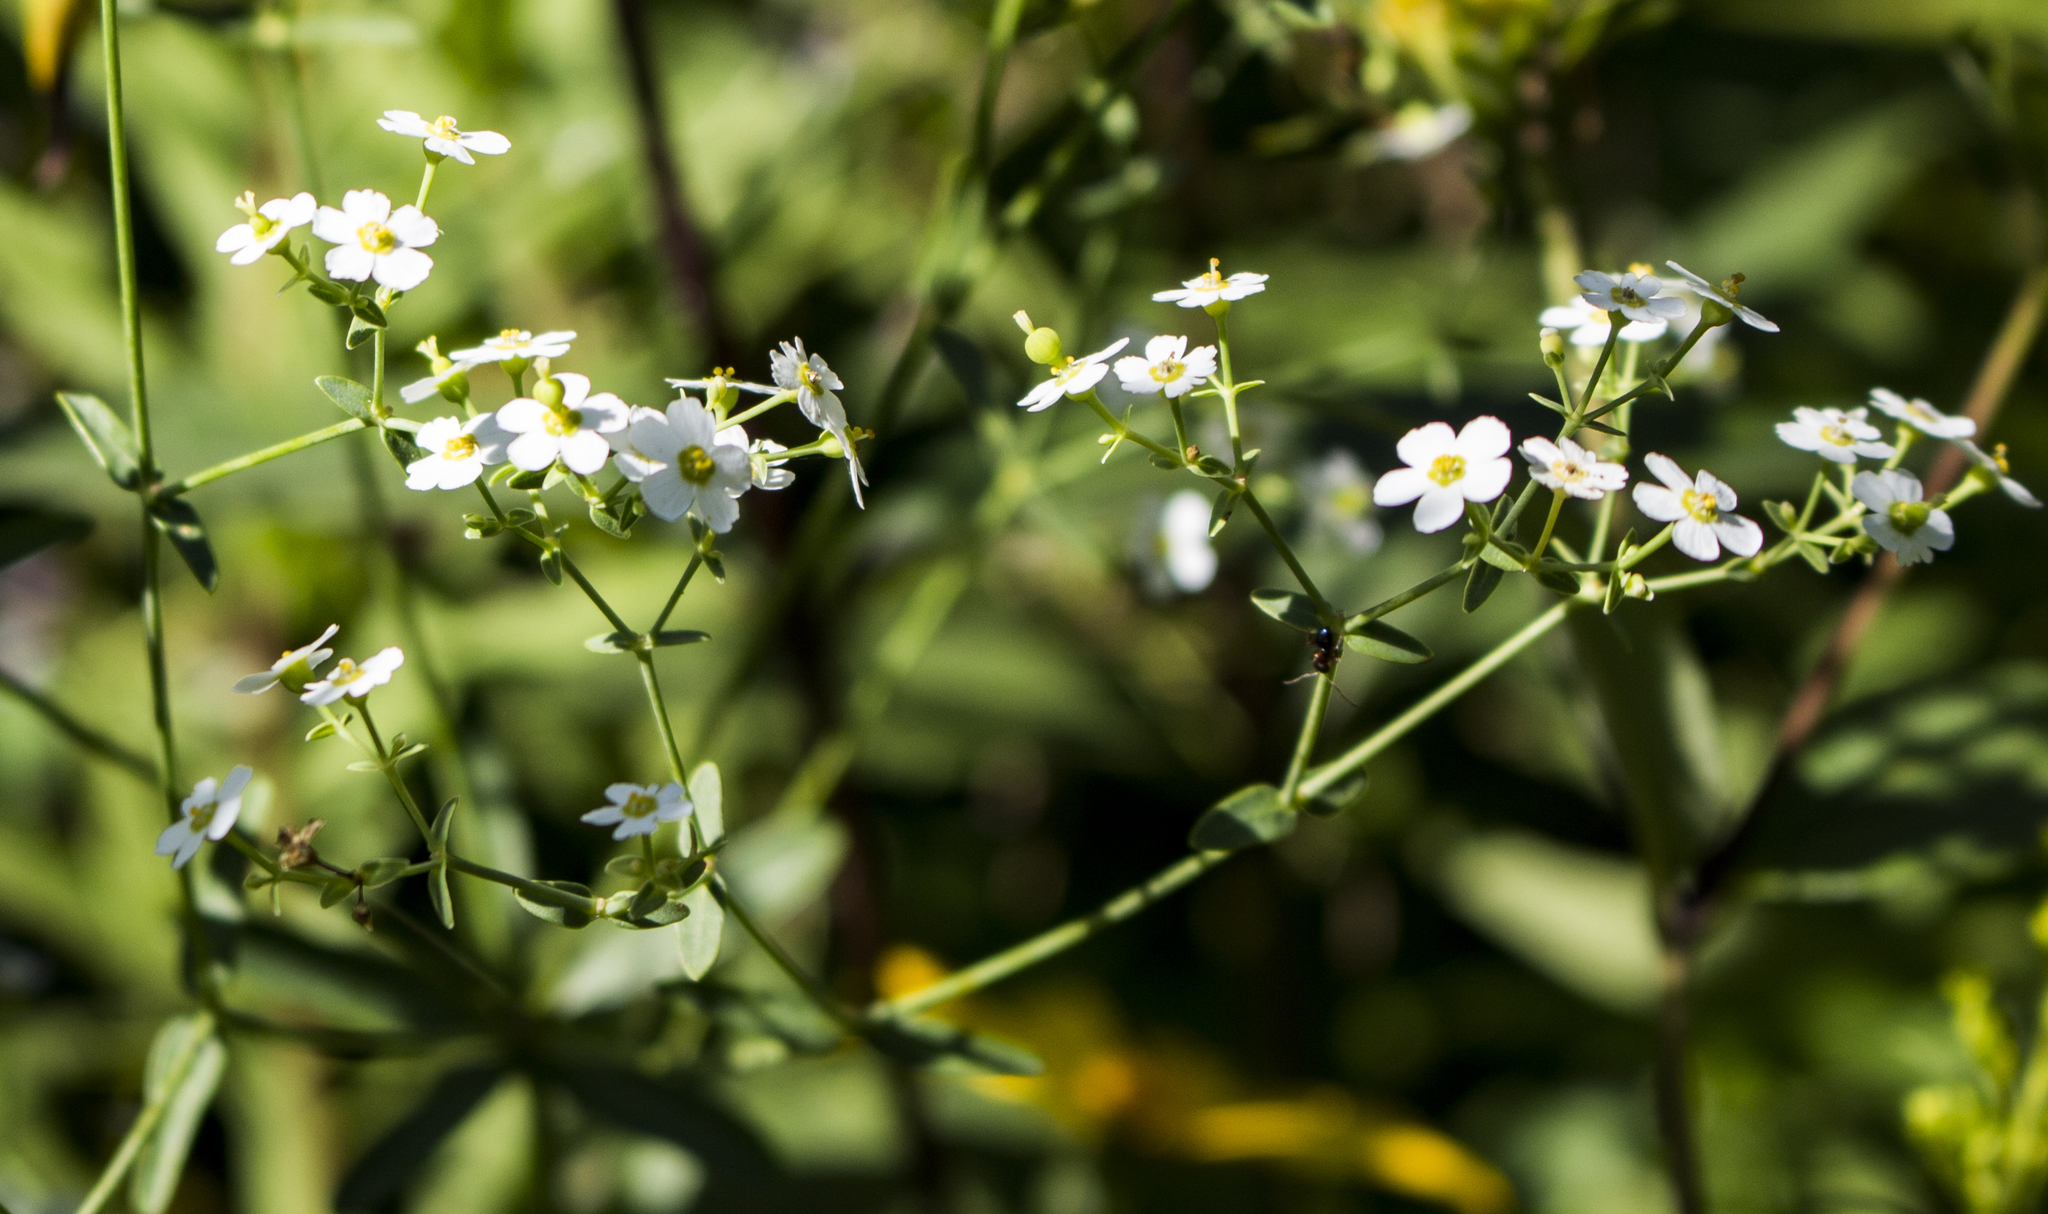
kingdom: Plantae
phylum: Tracheophyta
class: Magnoliopsida
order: Malpighiales
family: Euphorbiaceae
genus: Euphorbia
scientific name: Euphorbia corollata
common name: Flowering spurge
